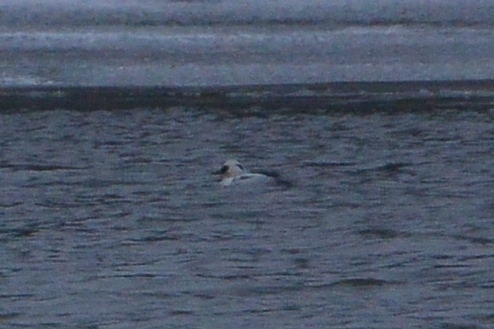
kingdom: Animalia
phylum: Chordata
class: Aves
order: Anseriformes
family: Anatidae
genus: Mergellus
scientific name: Mergellus albellus
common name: Smew
